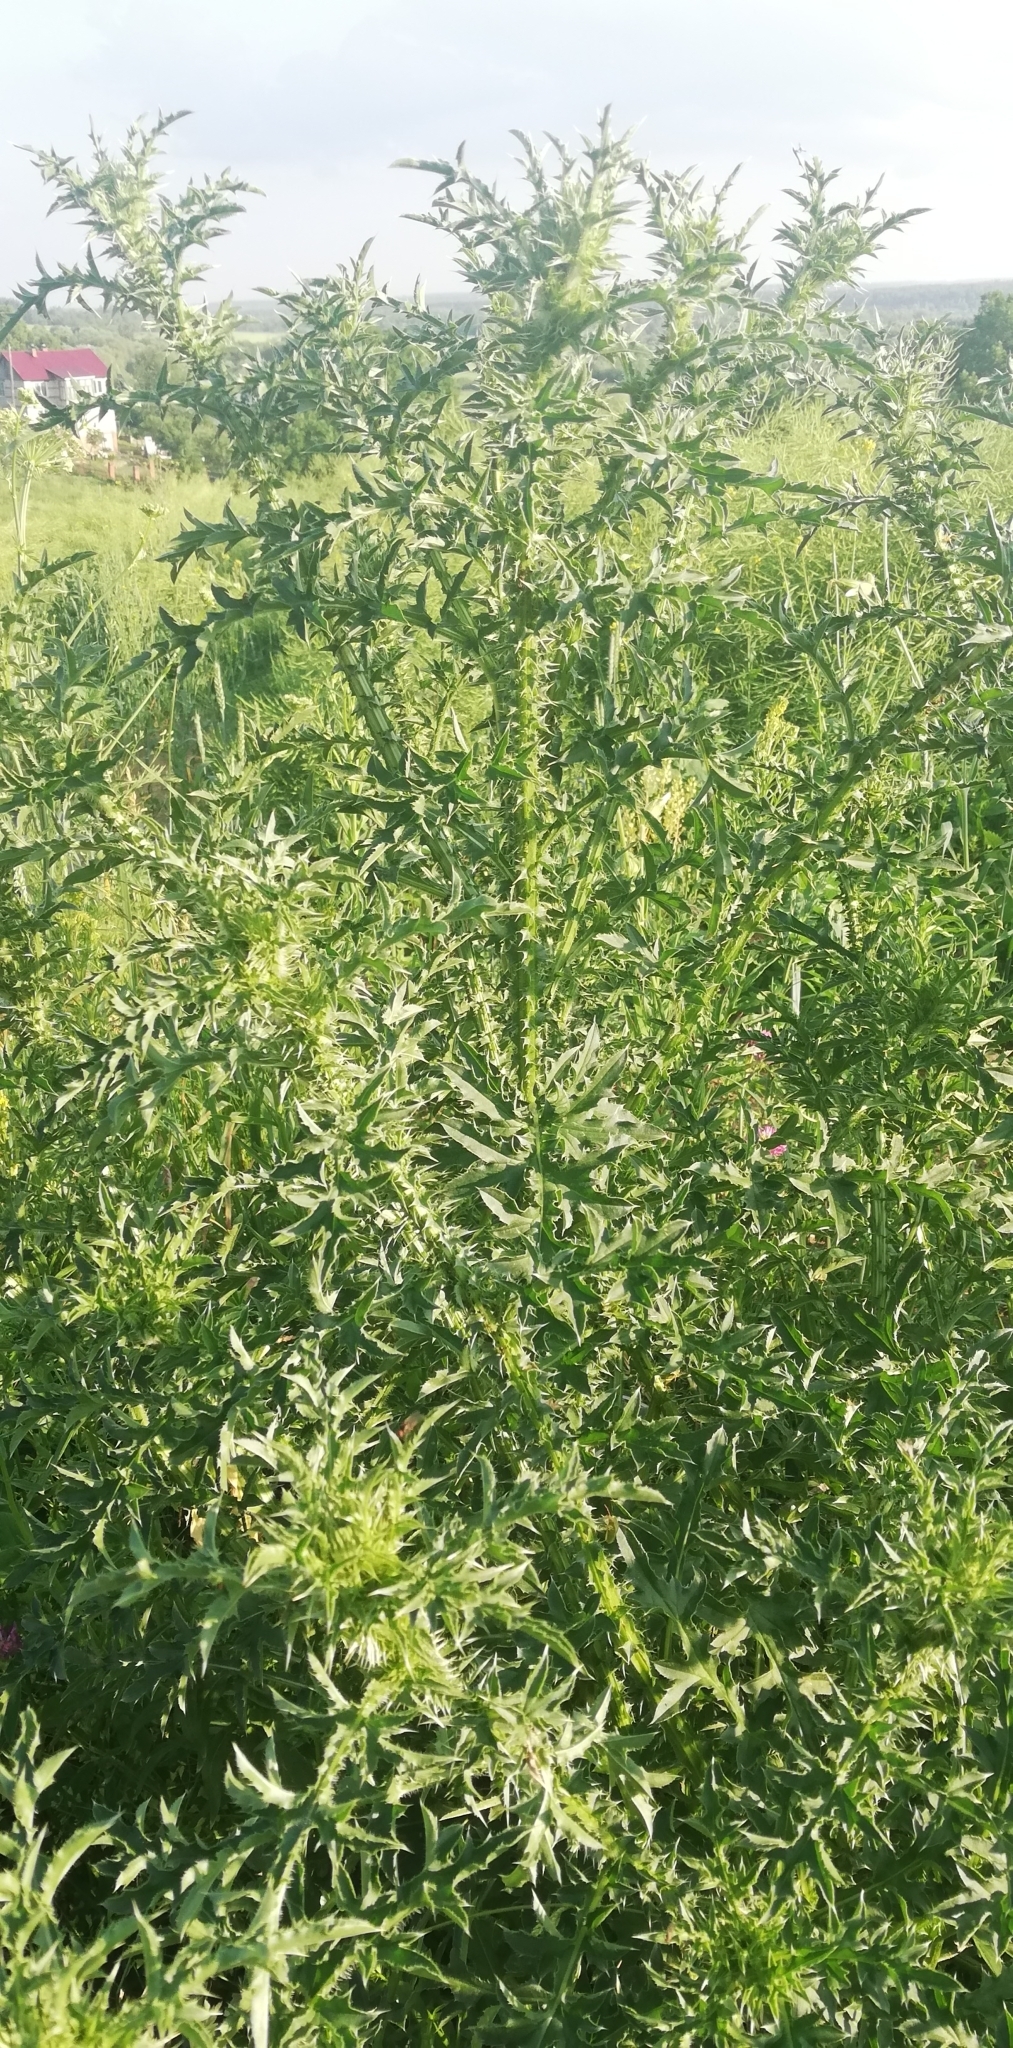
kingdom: Plantae
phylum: Tracheophyta
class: Magnoliopsida
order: Asterales
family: Asteraceae
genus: Carduus
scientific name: Carduus acanthoides
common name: Plumeless thistle
